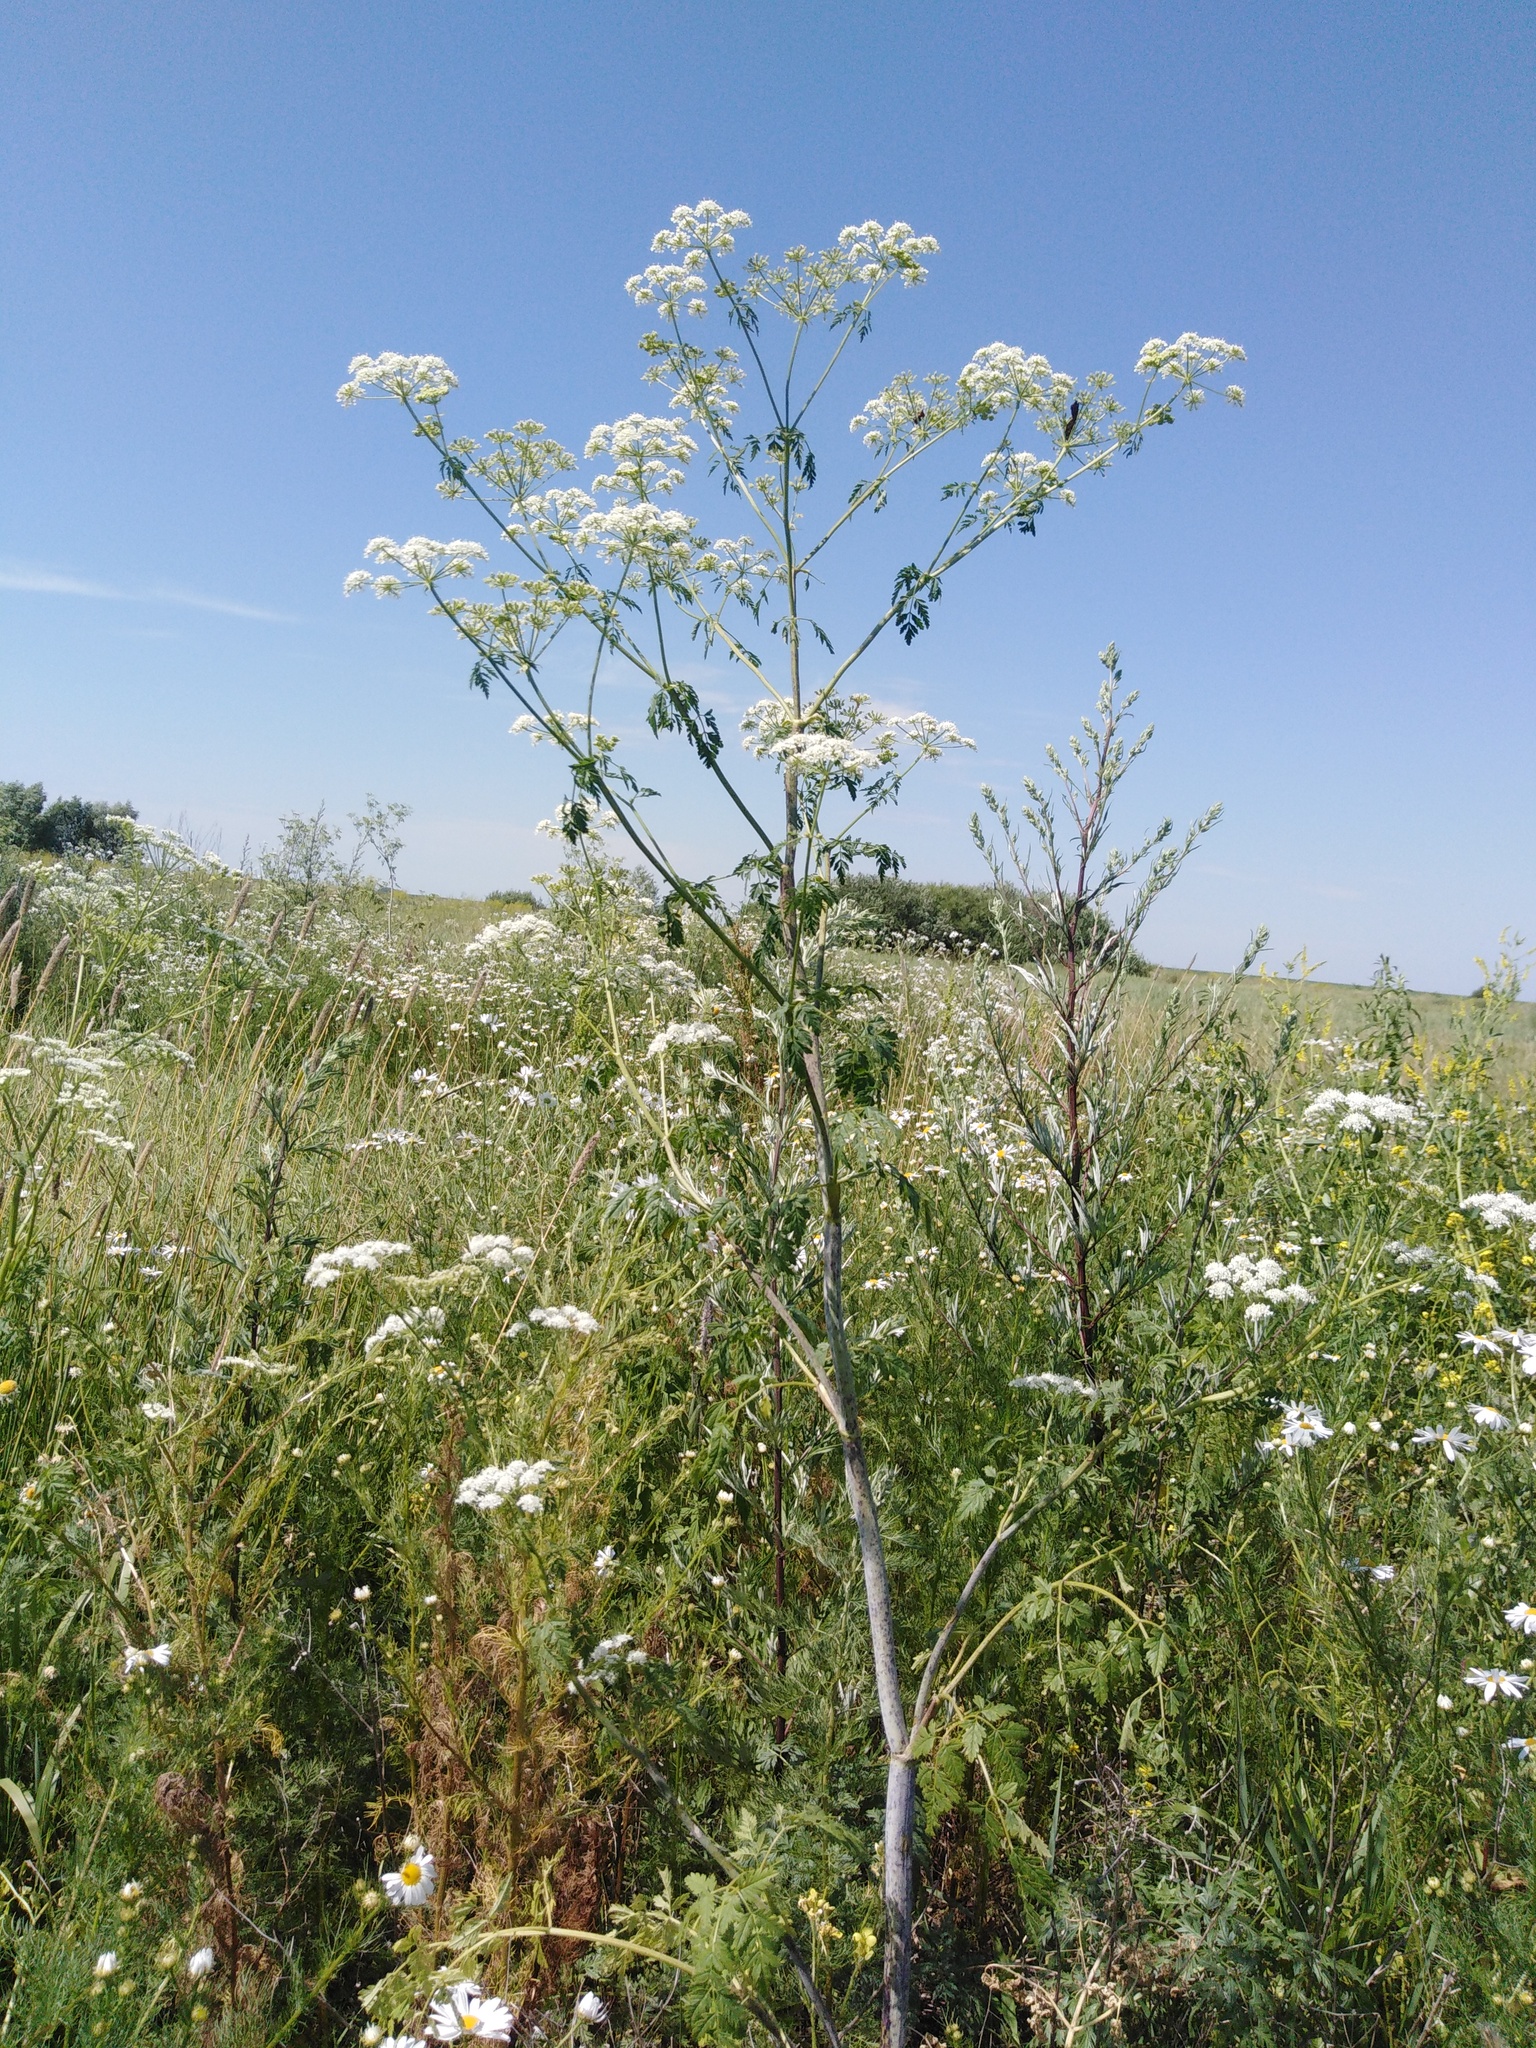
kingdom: Plantae
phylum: Tracheophyta
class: Magnoliopsida
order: Apiales
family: Apiaceae
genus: Conium
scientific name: Conium maculatum
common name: Hemlock
